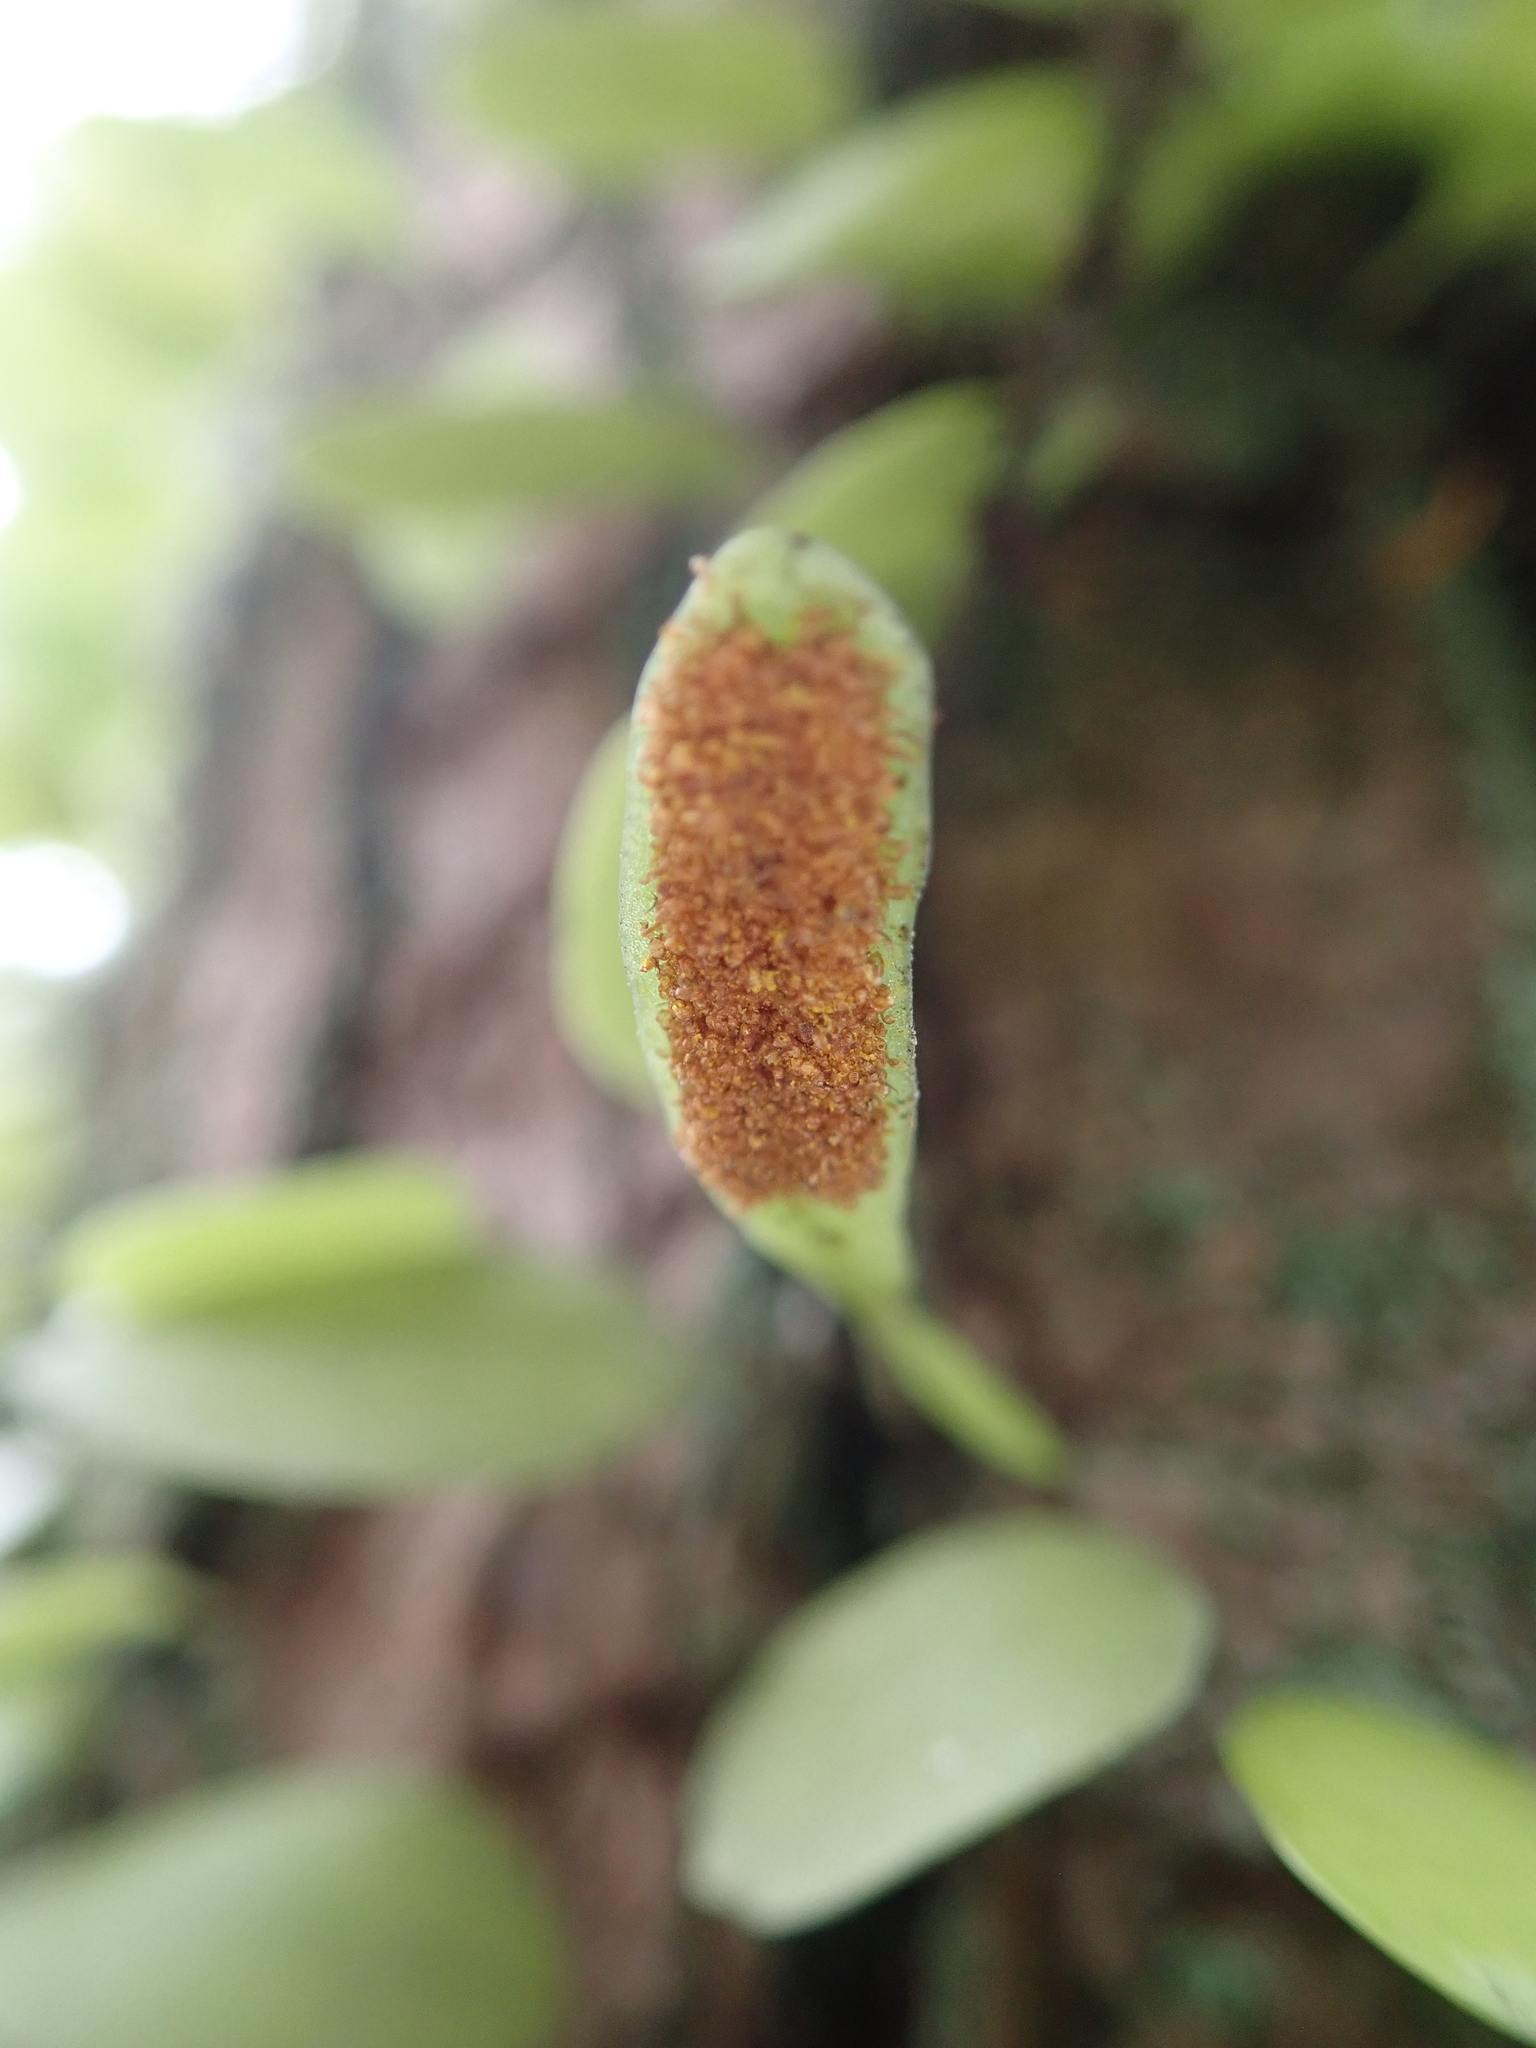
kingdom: Plantae
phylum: Tracheophyta
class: Polypodiopsida
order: Polypodiales
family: Polypodiaceae
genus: Lepisorus
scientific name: Lepisorus microphyllus
